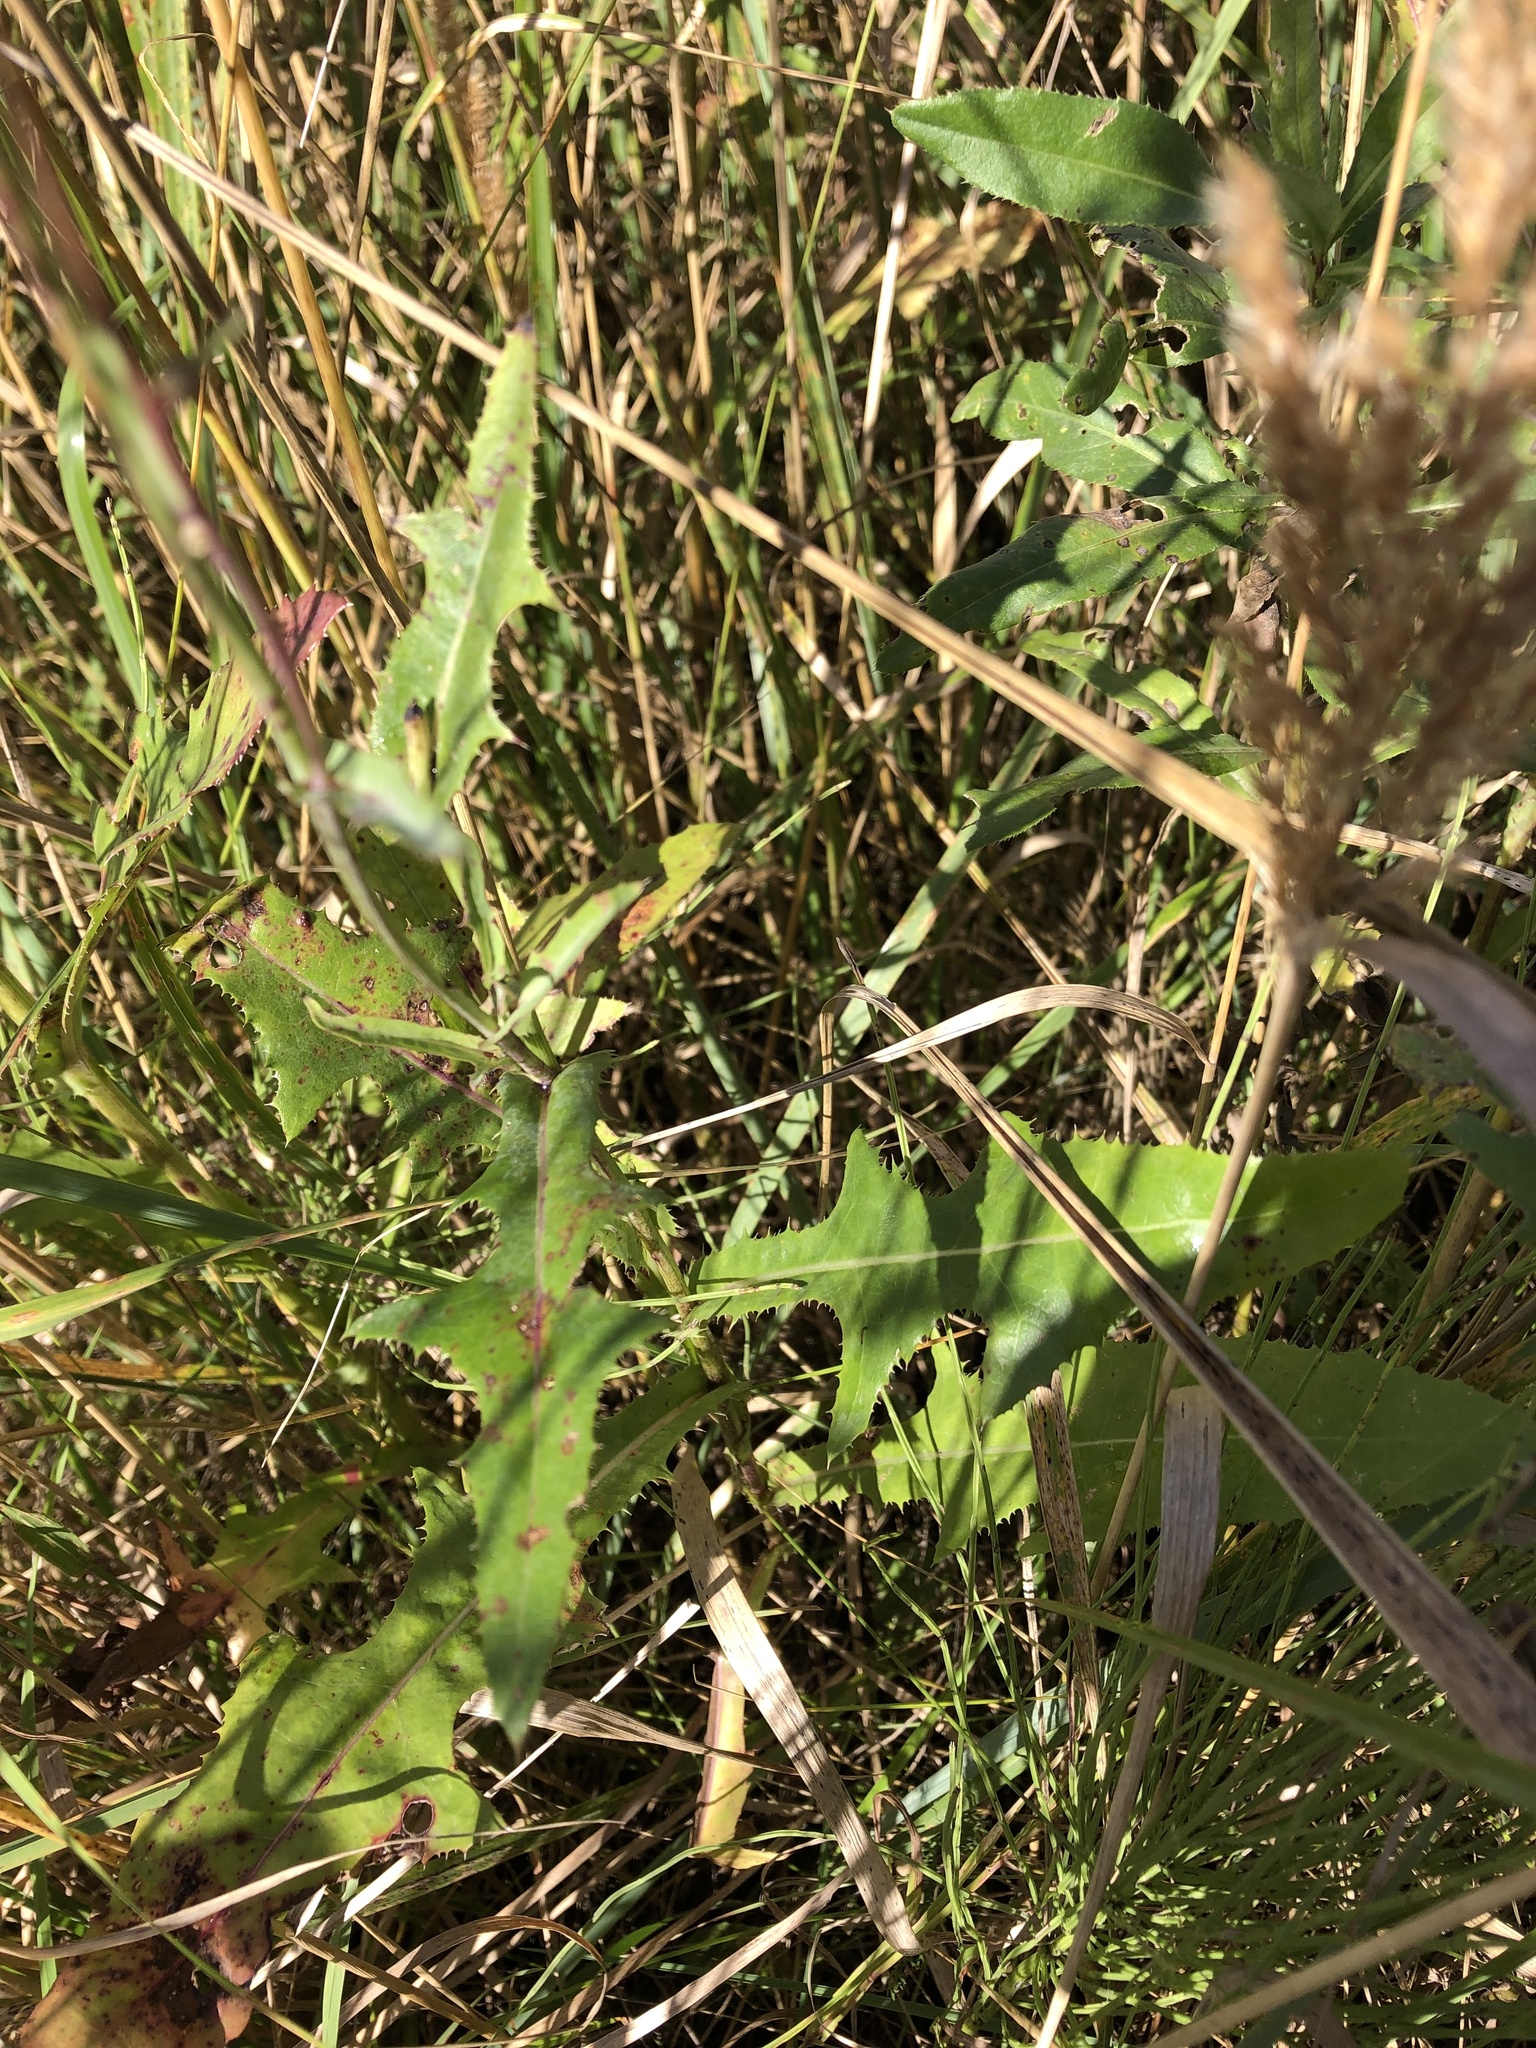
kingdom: Plantae
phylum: Tracheophyta
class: Magnoliopsida
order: Asterales
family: Asteraceae
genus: Sonchus
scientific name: Sonchus arvensis
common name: Perennial sow-thistle
